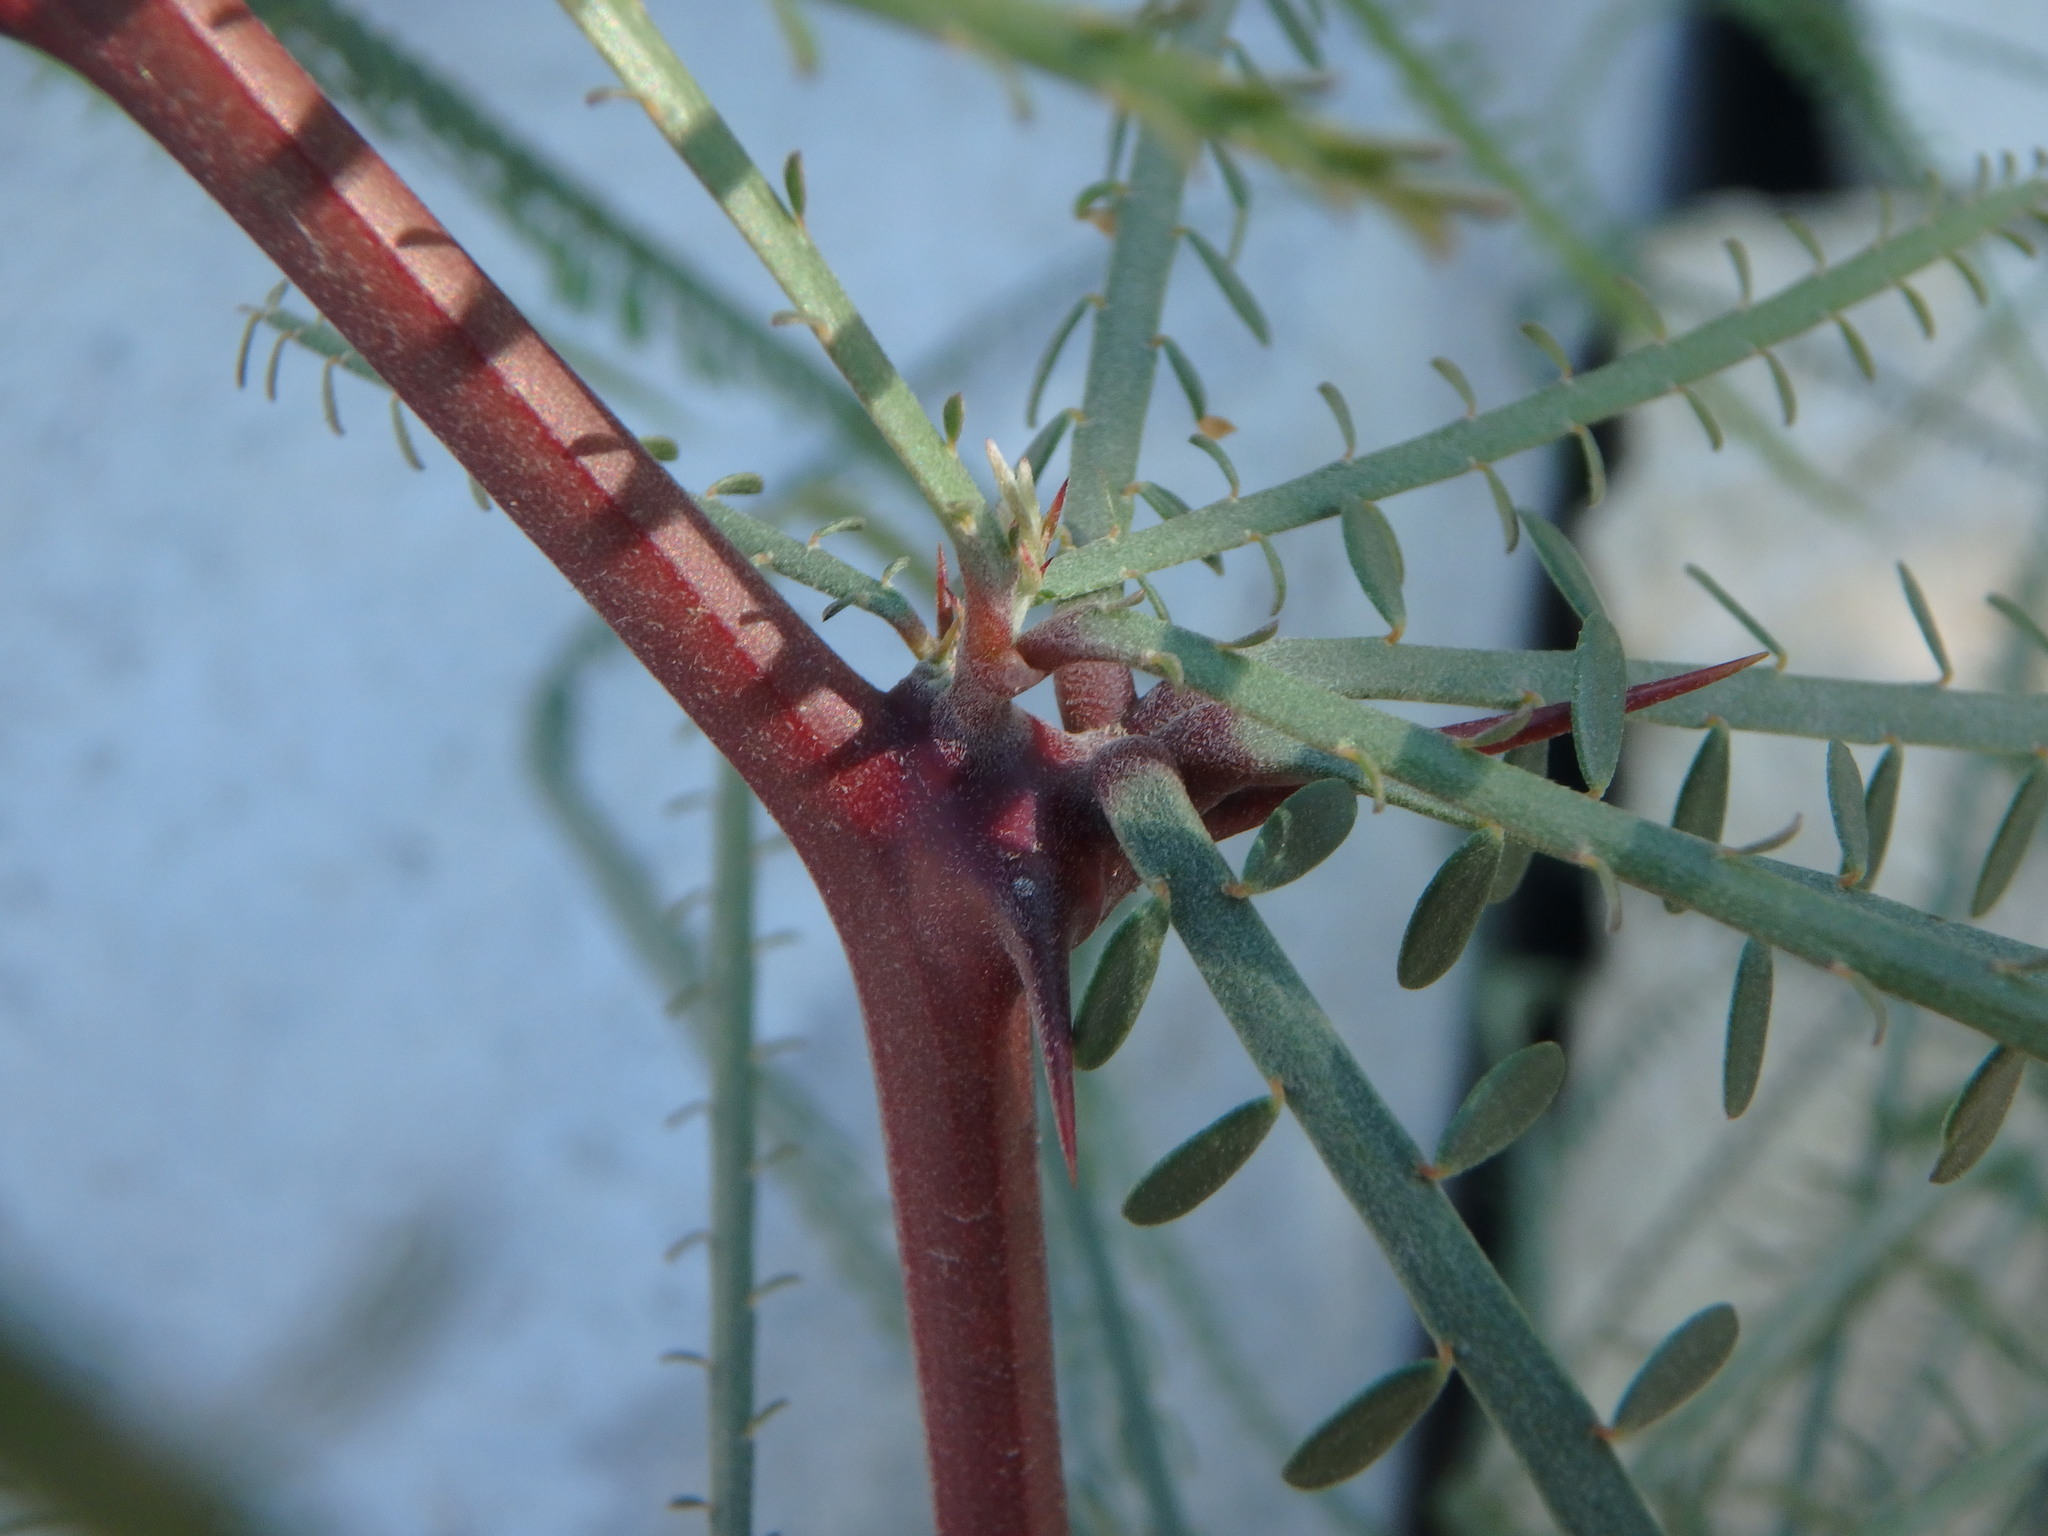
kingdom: Plantae
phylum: Tracheophyta
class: Magnoliopsida
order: Fabales
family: Fabaceae
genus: Parkinsonia
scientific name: Parkinsonia aculeata
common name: Jerusalem thorn
